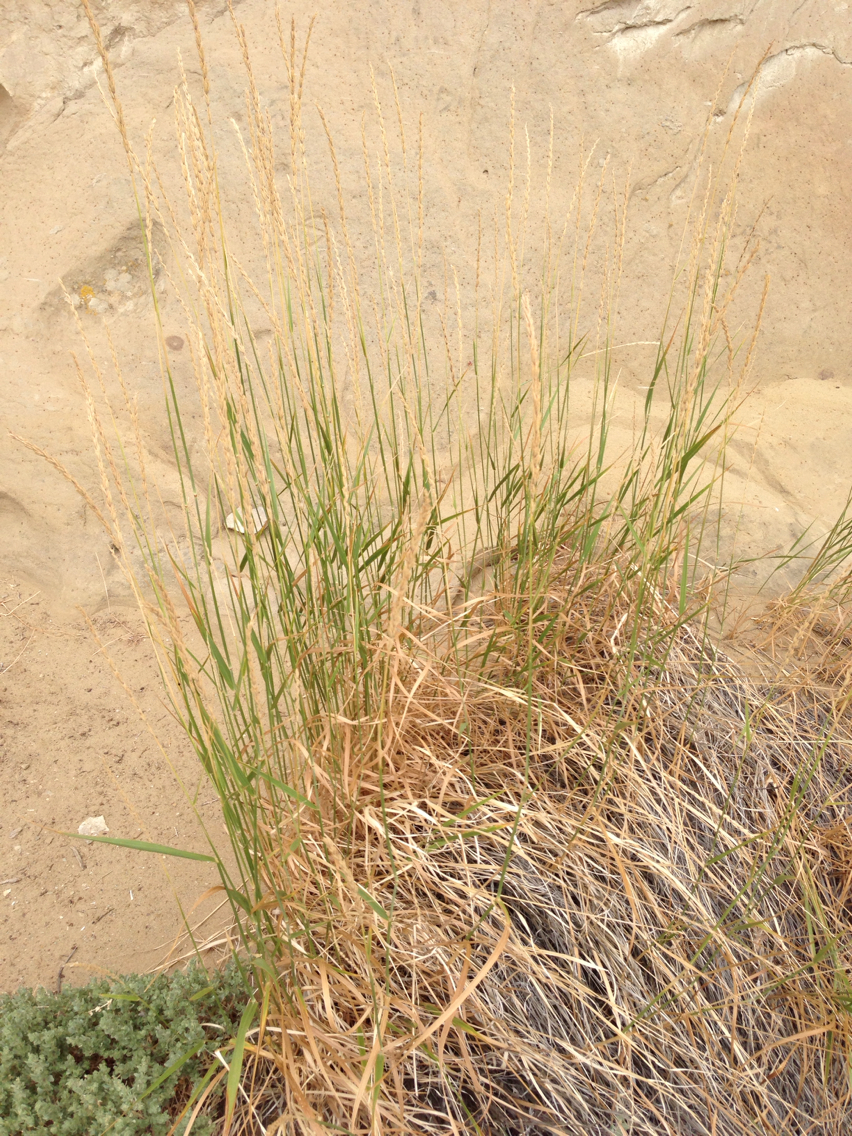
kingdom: Plantae
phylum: Tracheophyta
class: Liliopsida
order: Poales
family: Poaceae
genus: Leymus
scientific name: Leymus cinereus
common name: Basin wild rye
